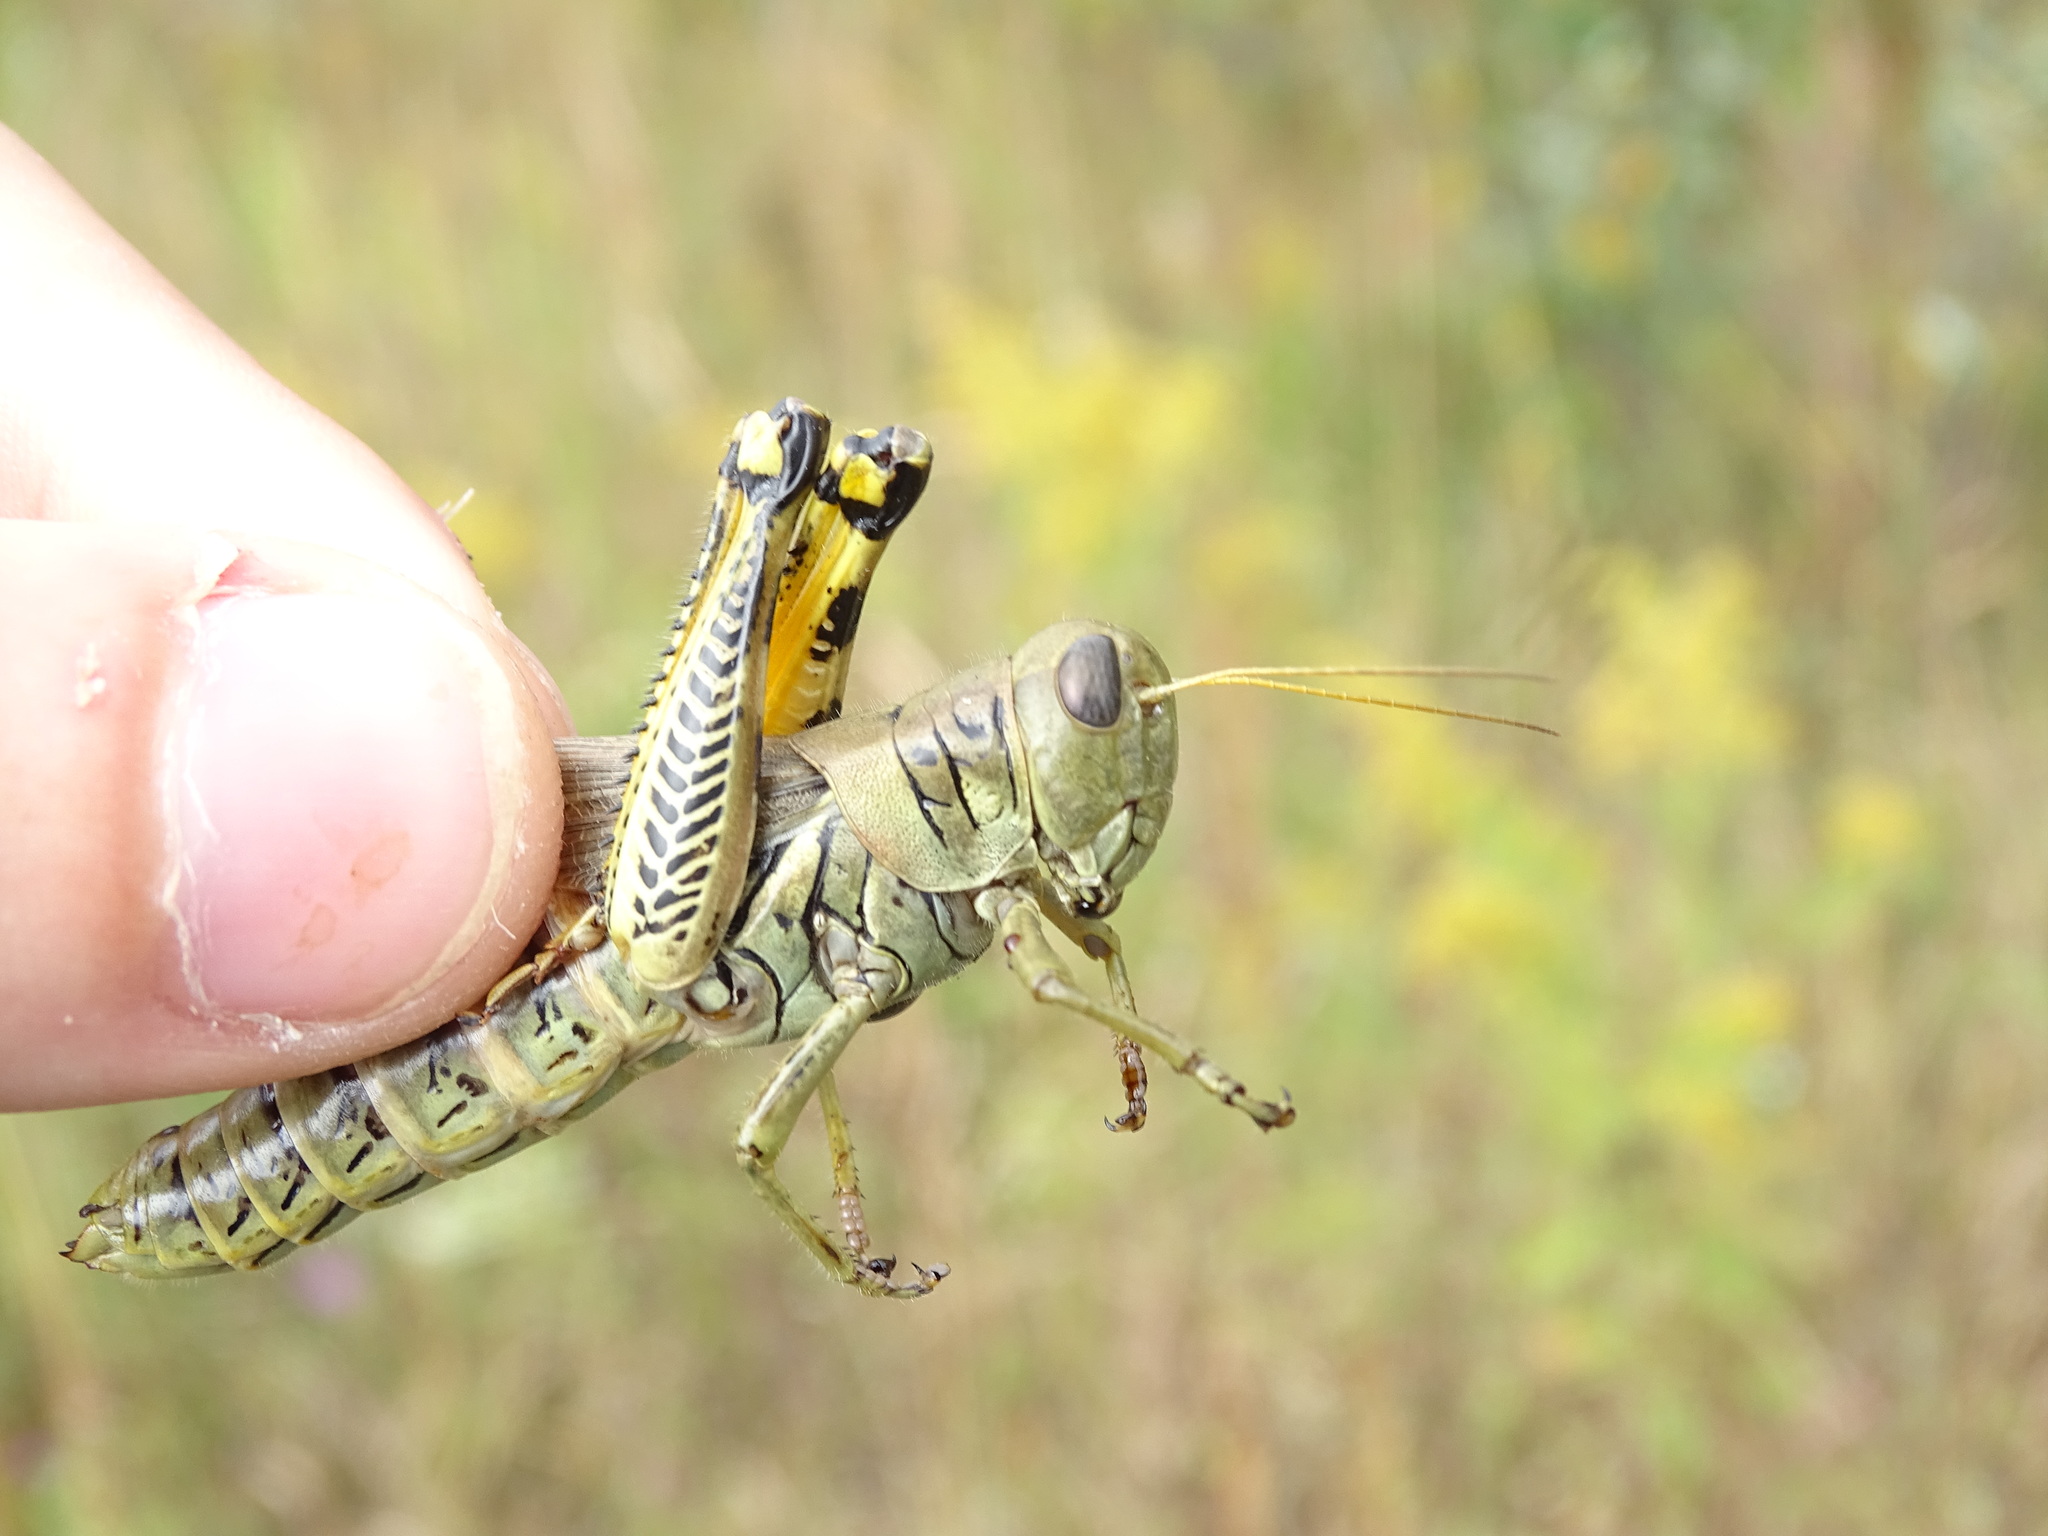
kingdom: Animalia
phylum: Arthropoda
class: Insecta
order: Orthoptera
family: Acrididae
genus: Melanoplus
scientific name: Melanoplus differentialis
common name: Differential grasshopper
